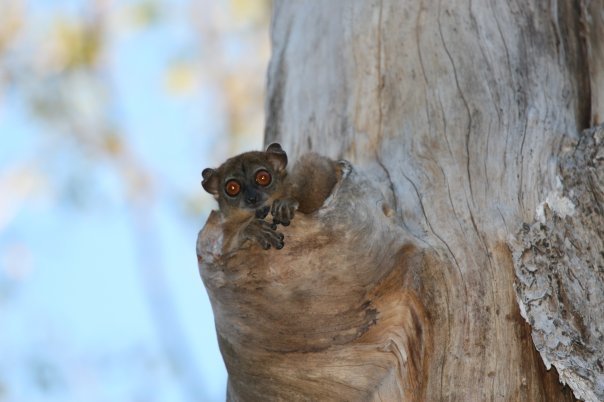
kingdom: Animalia
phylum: Chordata
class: Mammalia
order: Primates
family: Lepilemuridae
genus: Lepilemur
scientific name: Lepilemur ankaranensis
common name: Ankarana sportive lemur
